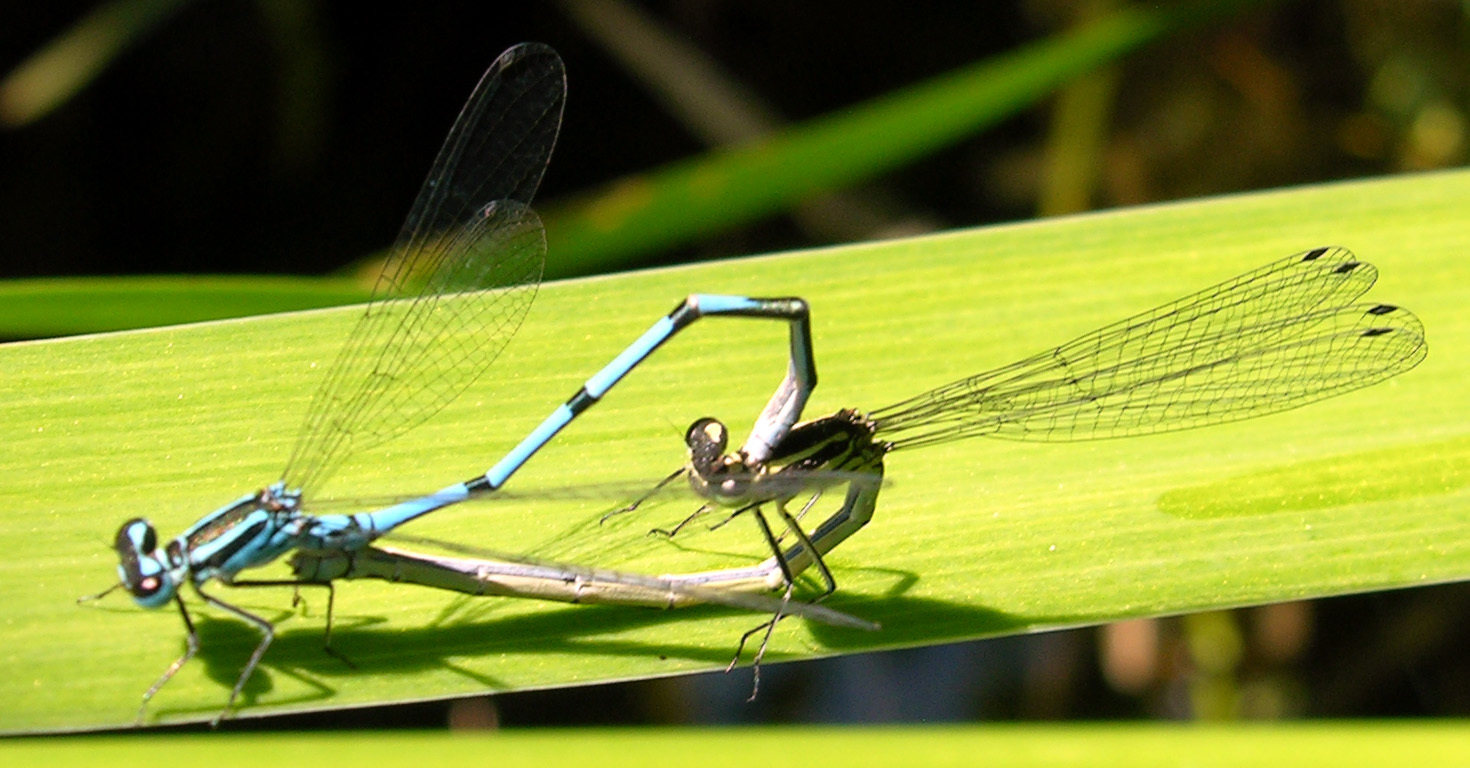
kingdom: Animalia
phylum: Arthropoda
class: Insecta
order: Odonata
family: Coenagrionidae
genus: Coenagrion
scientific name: Coenagrion puella
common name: Azure damselfly
